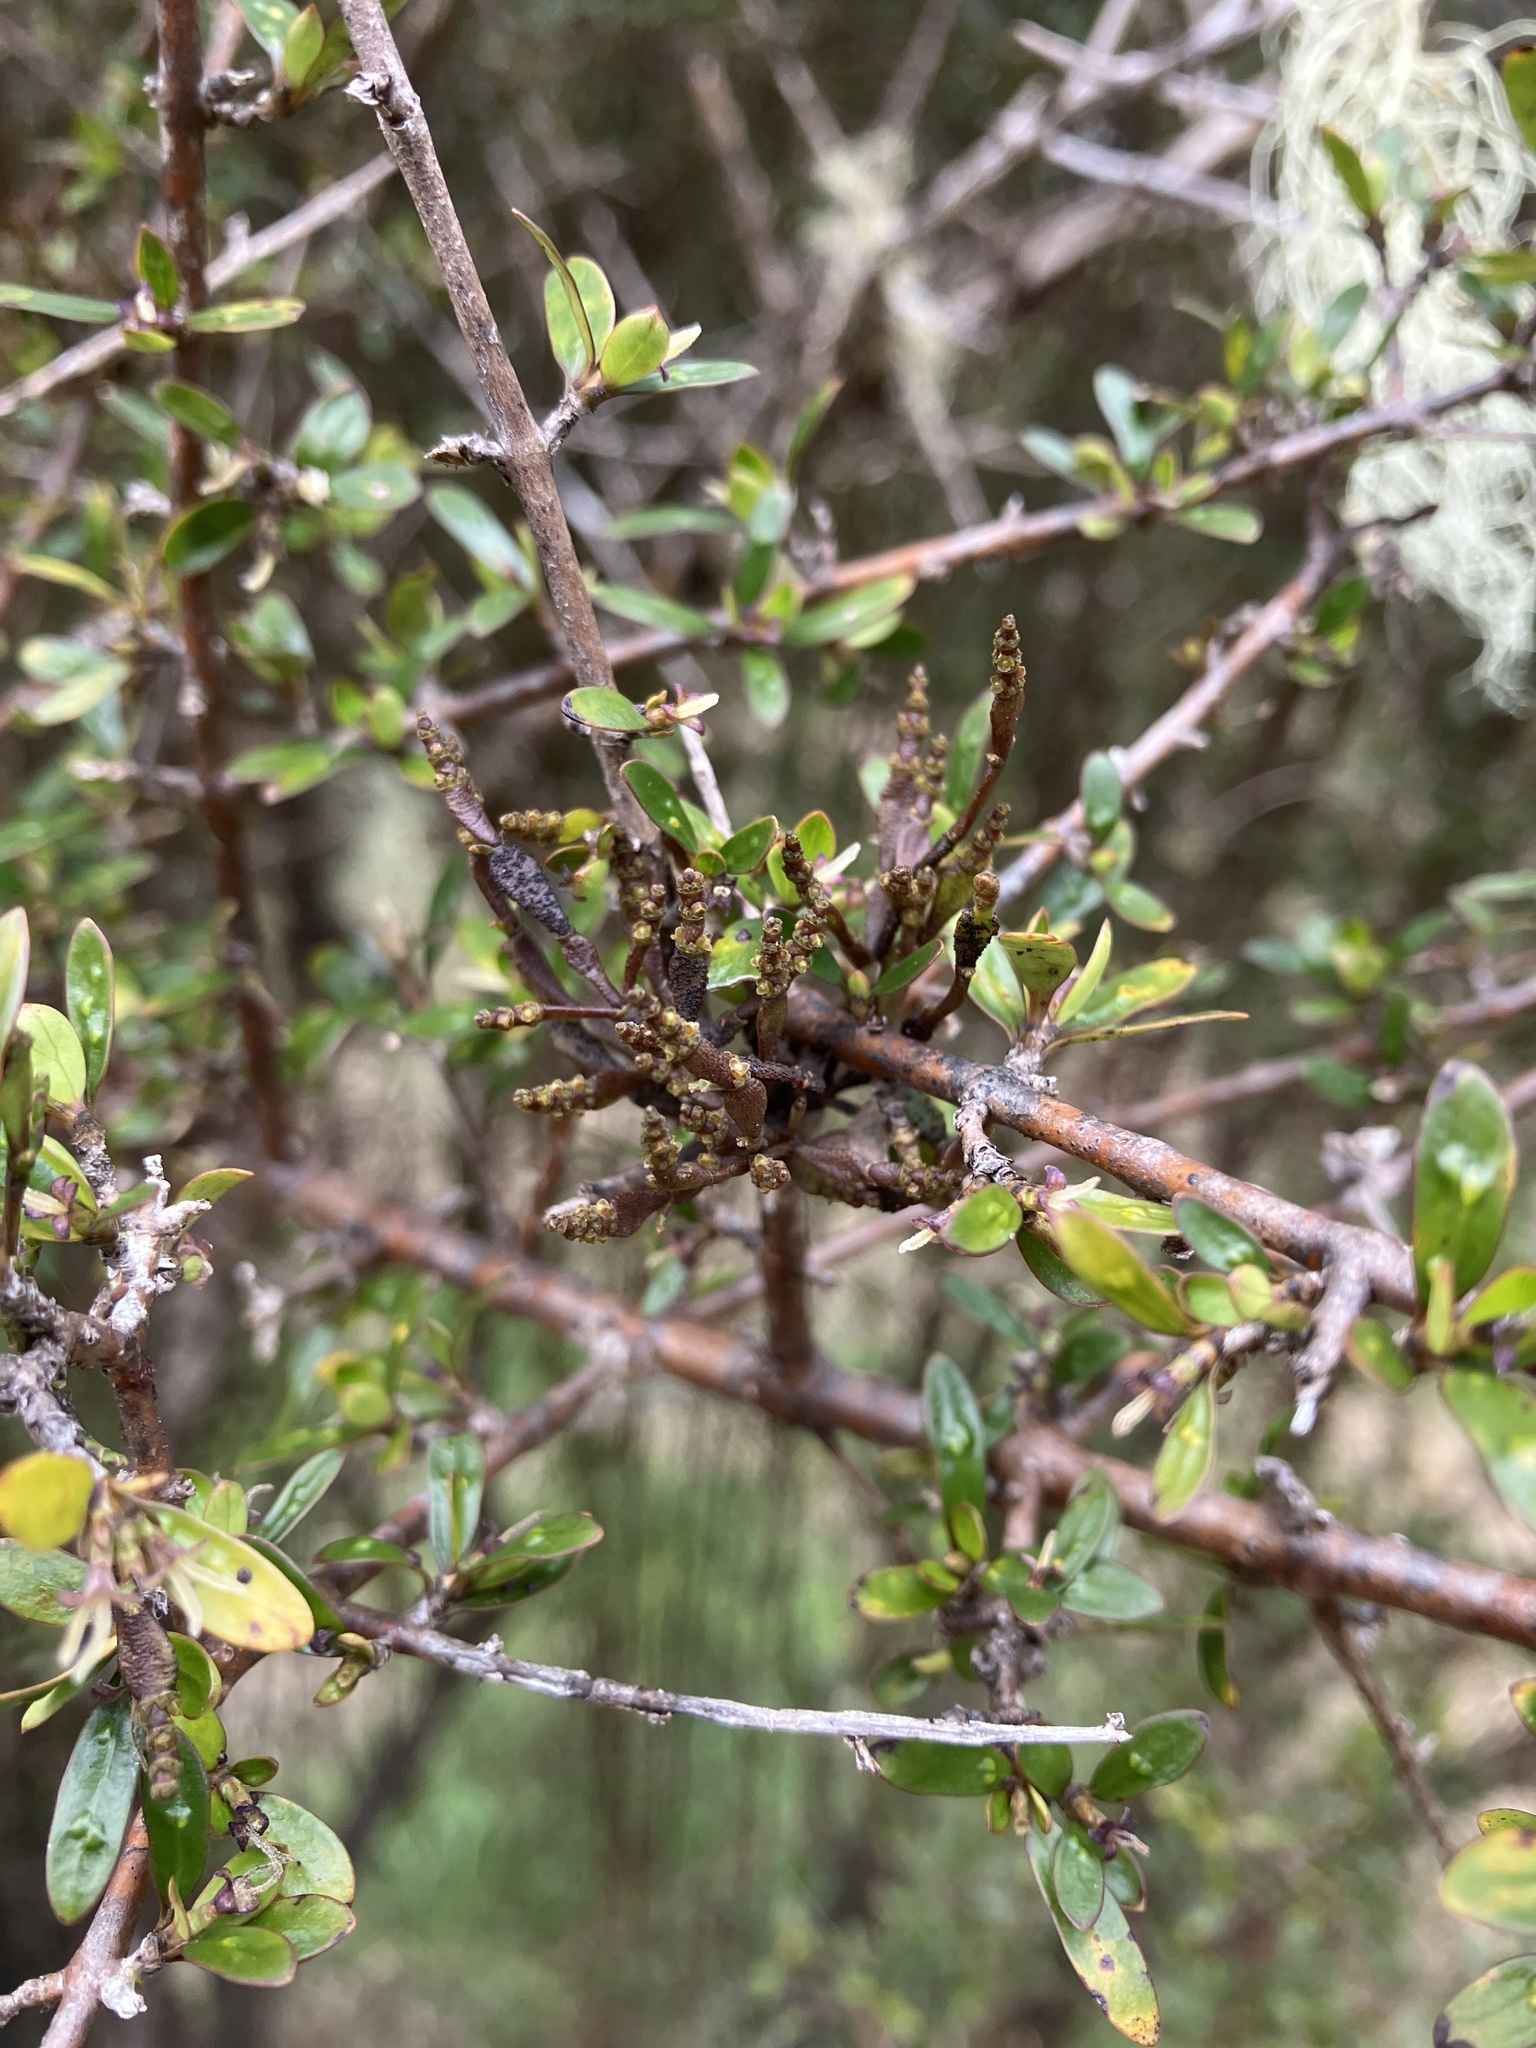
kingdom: Plantae
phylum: Tracheophyta
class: Magnoliopsida
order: Santalales
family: Viscaceae
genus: Korthalsella
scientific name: Korthalsella clavata
